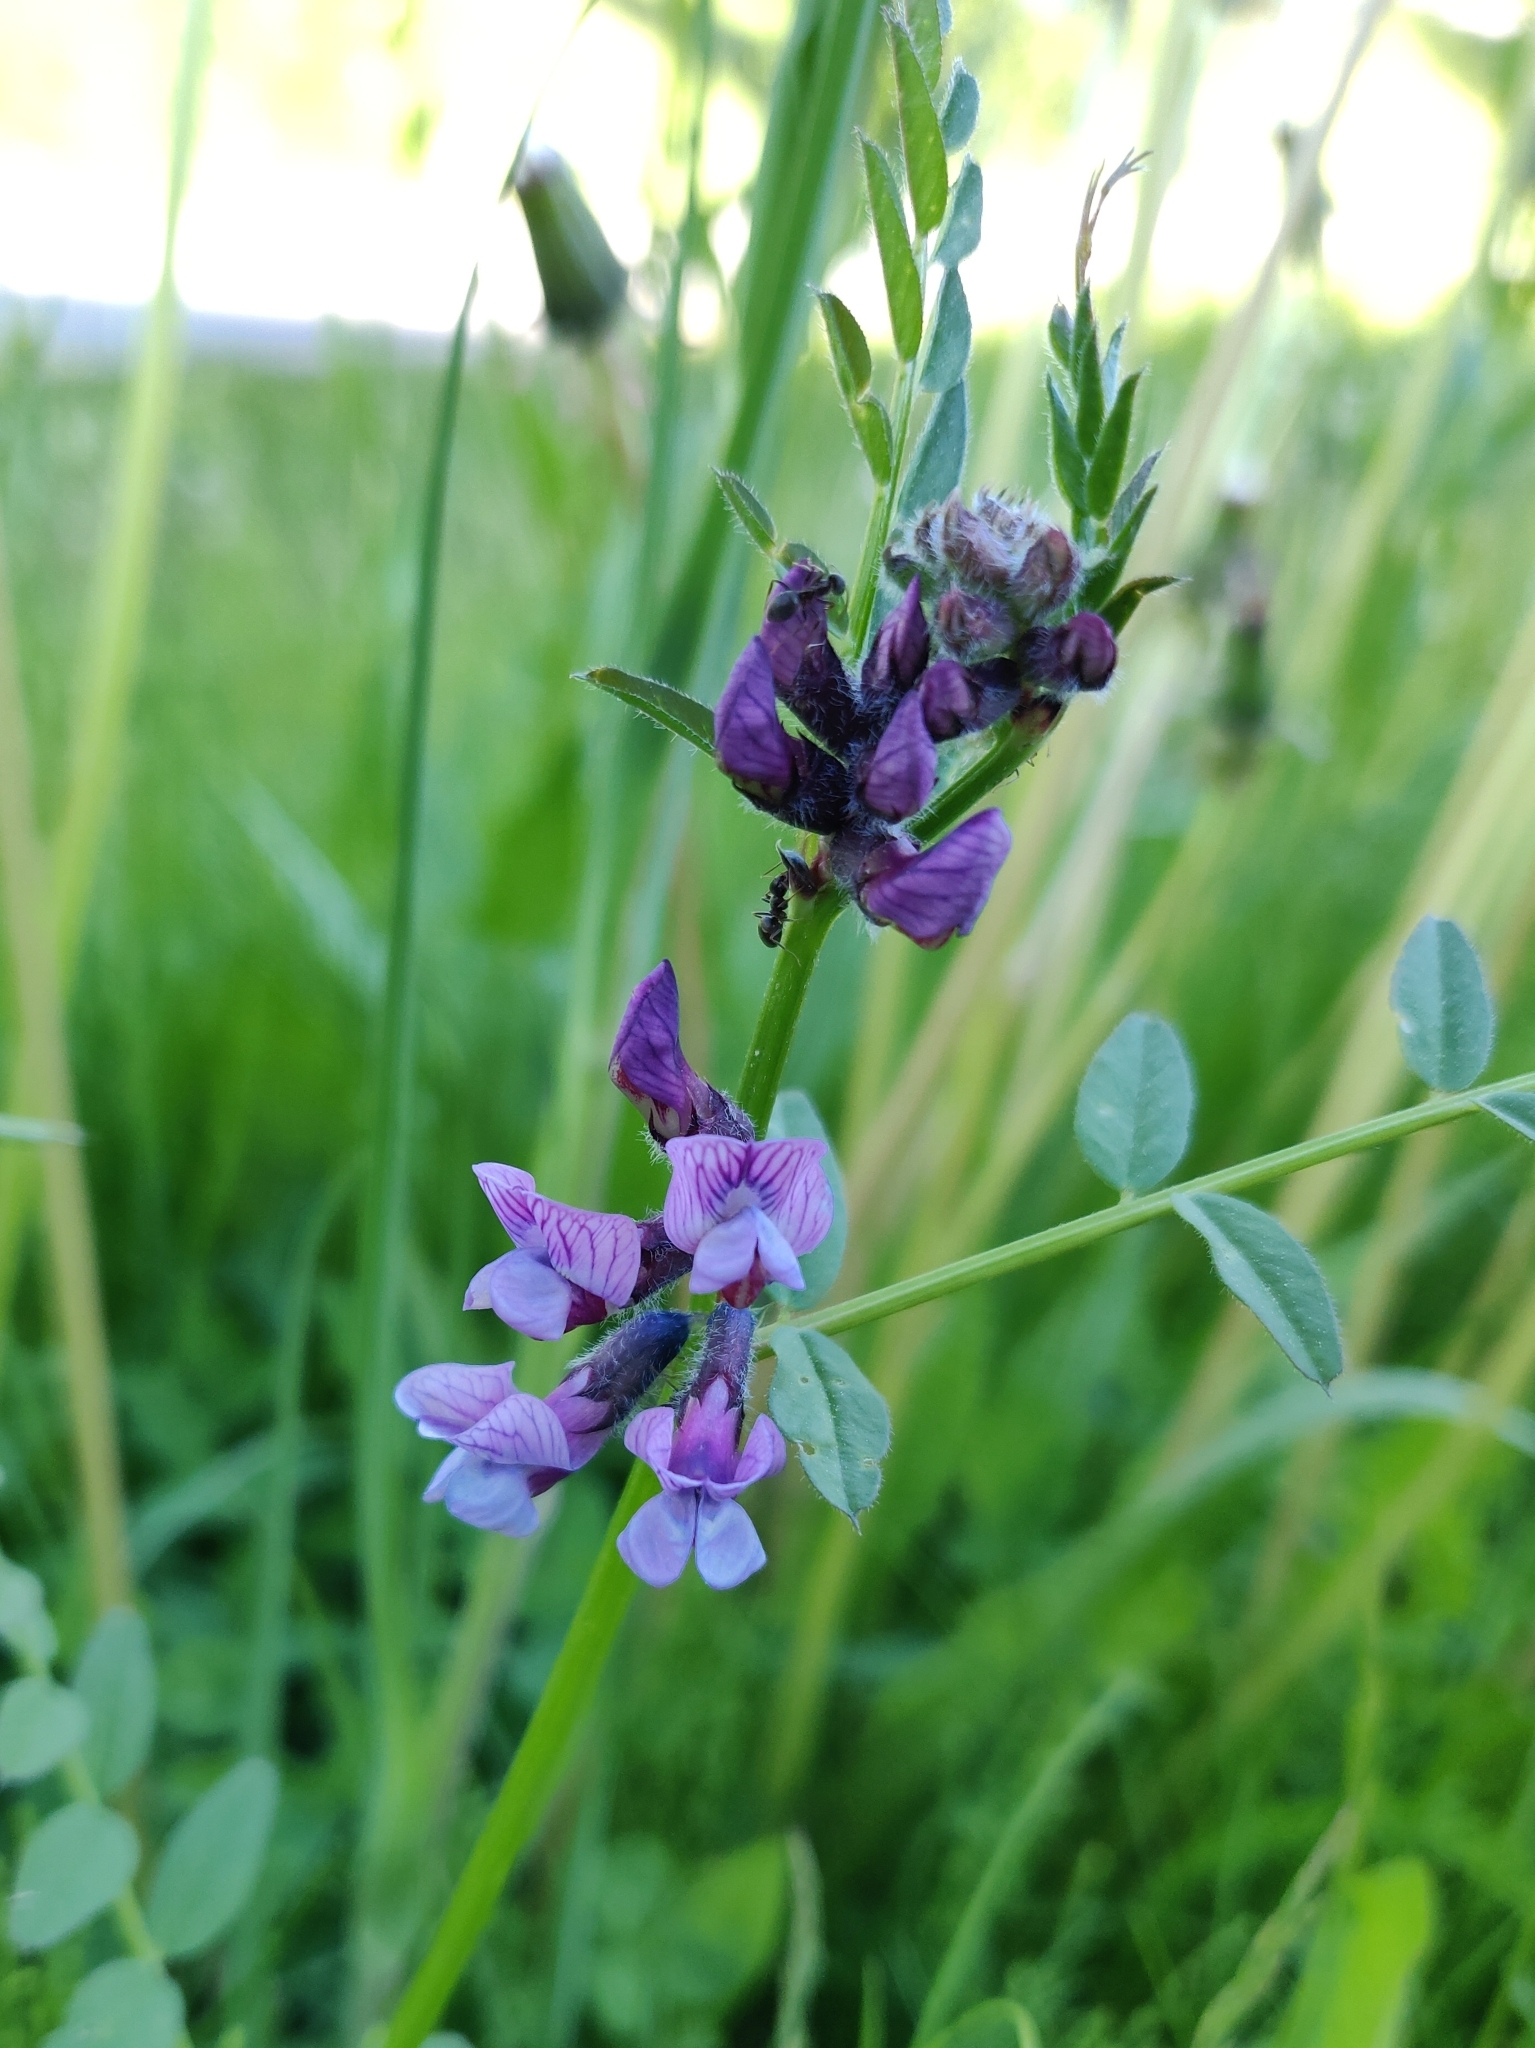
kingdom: Plantae
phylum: Tracheophyta
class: Magnoliopsida
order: Fabales
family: Fabaceae
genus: Vicia
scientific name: Vicia sepium
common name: Bush vetch
